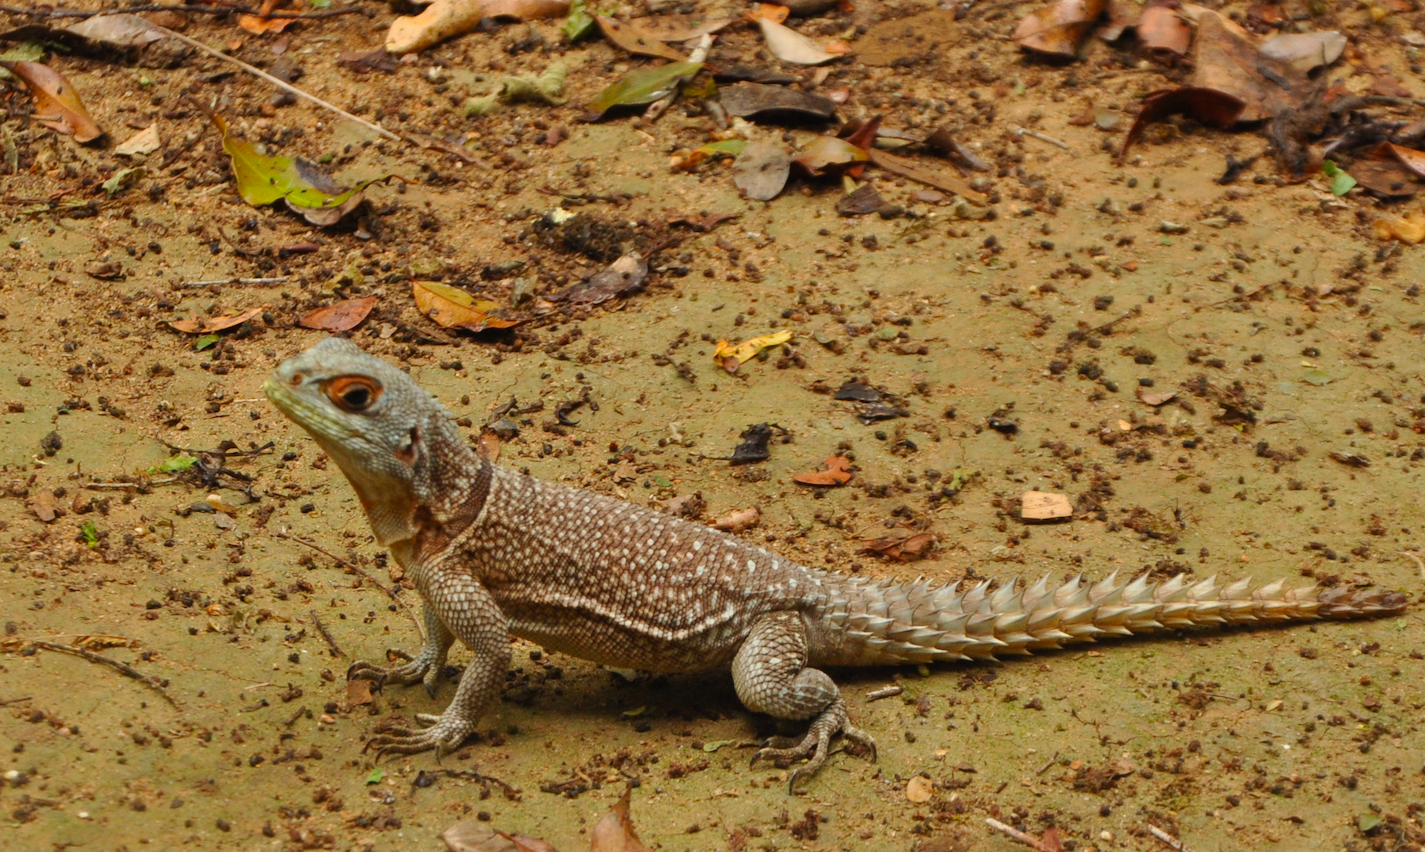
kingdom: Animalia
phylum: Chordata
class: Squamata
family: Opluridae
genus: Oplurus
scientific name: Oplurus cuvieri
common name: Cuvier's madagascar swift
